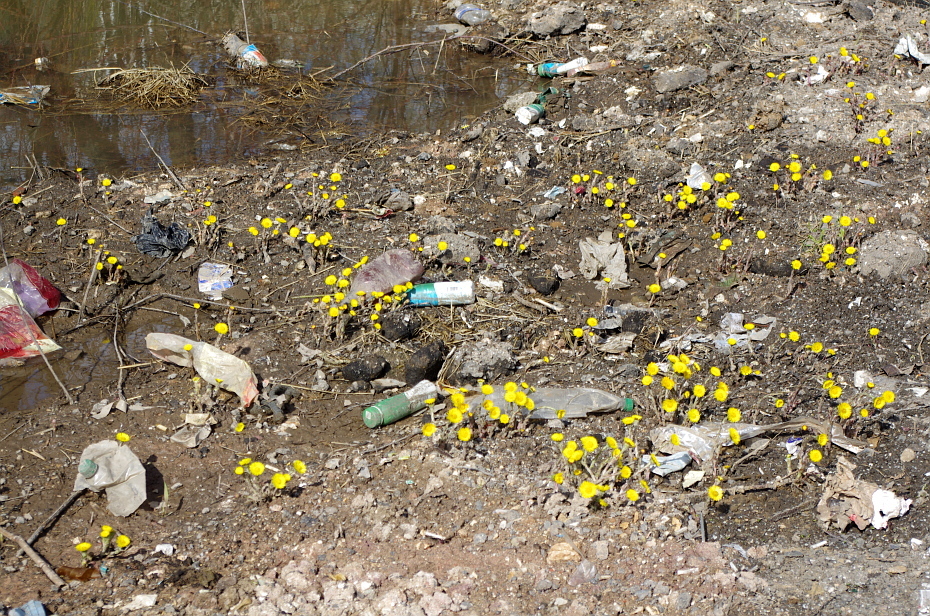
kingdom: Plantae
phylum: Tracheophyta
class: Magnoliopsida
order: Asterales
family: Asteraceae
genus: Tussilago
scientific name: Tussilago farfara
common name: Coltsfoot
